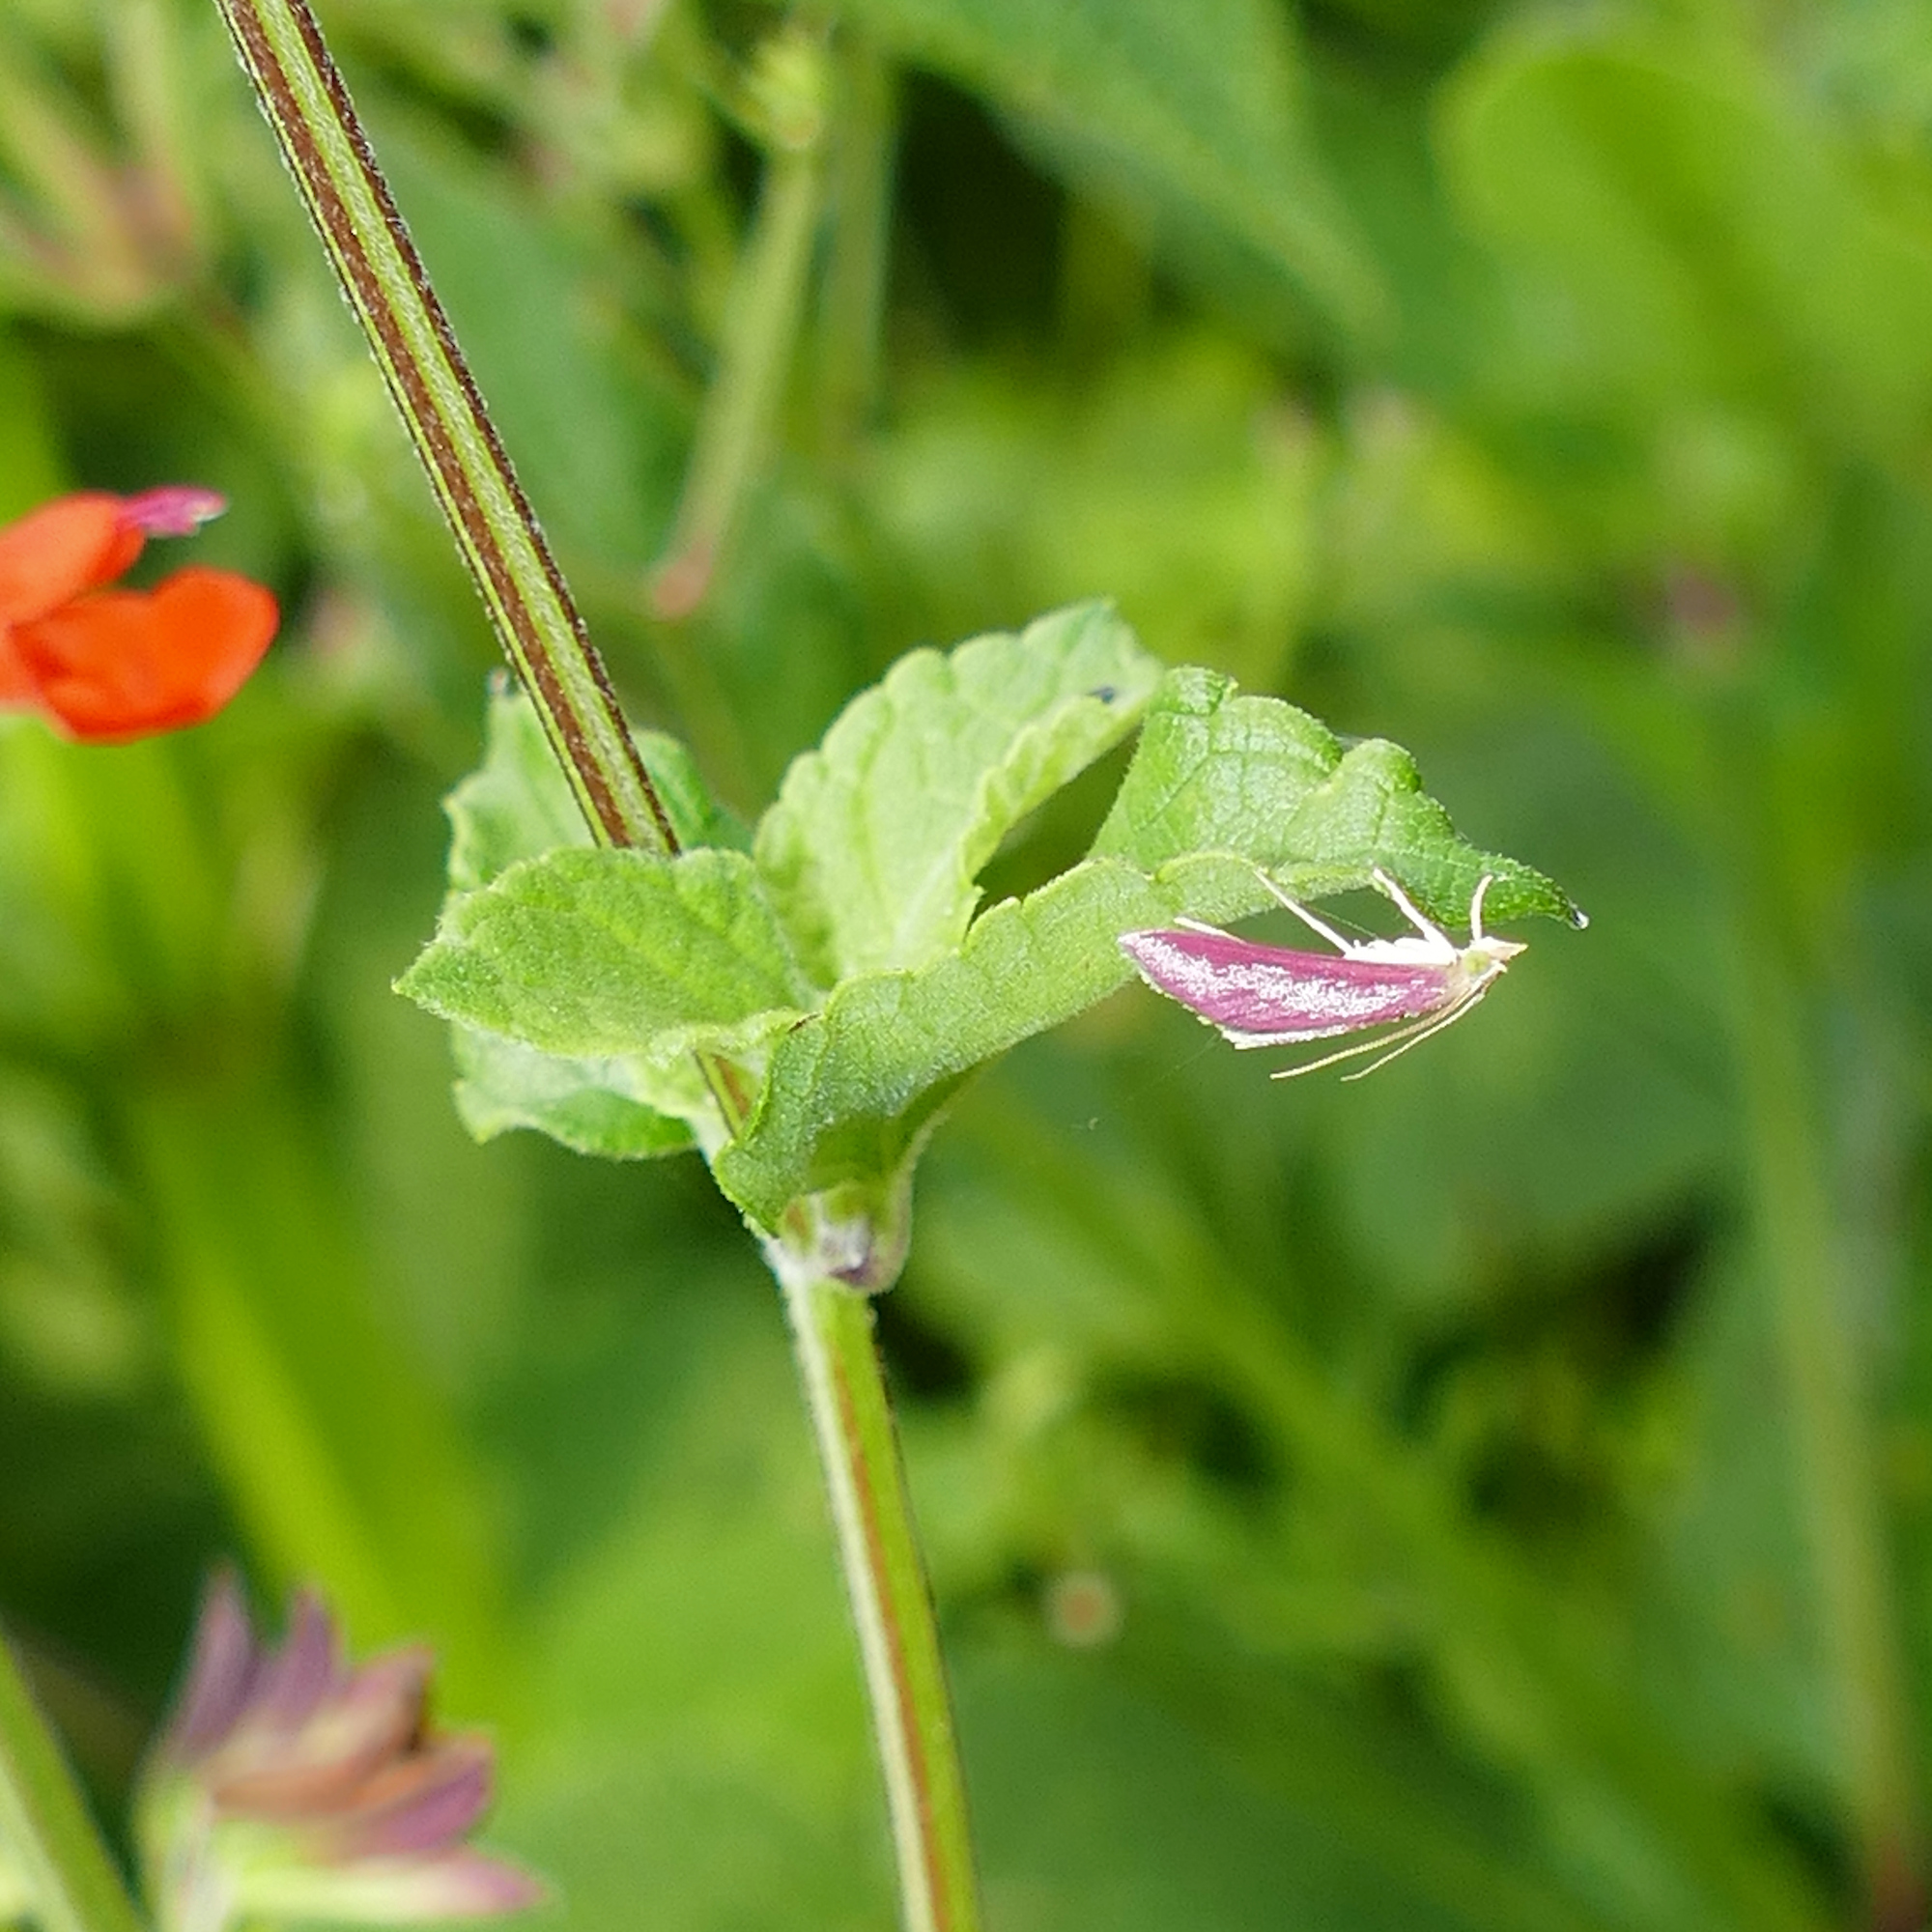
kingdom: Animalia
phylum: Arthropoda
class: Insecta
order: Lepidoptera
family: Crambidae
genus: Pyrausta
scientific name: Pyrausta inornatalis
